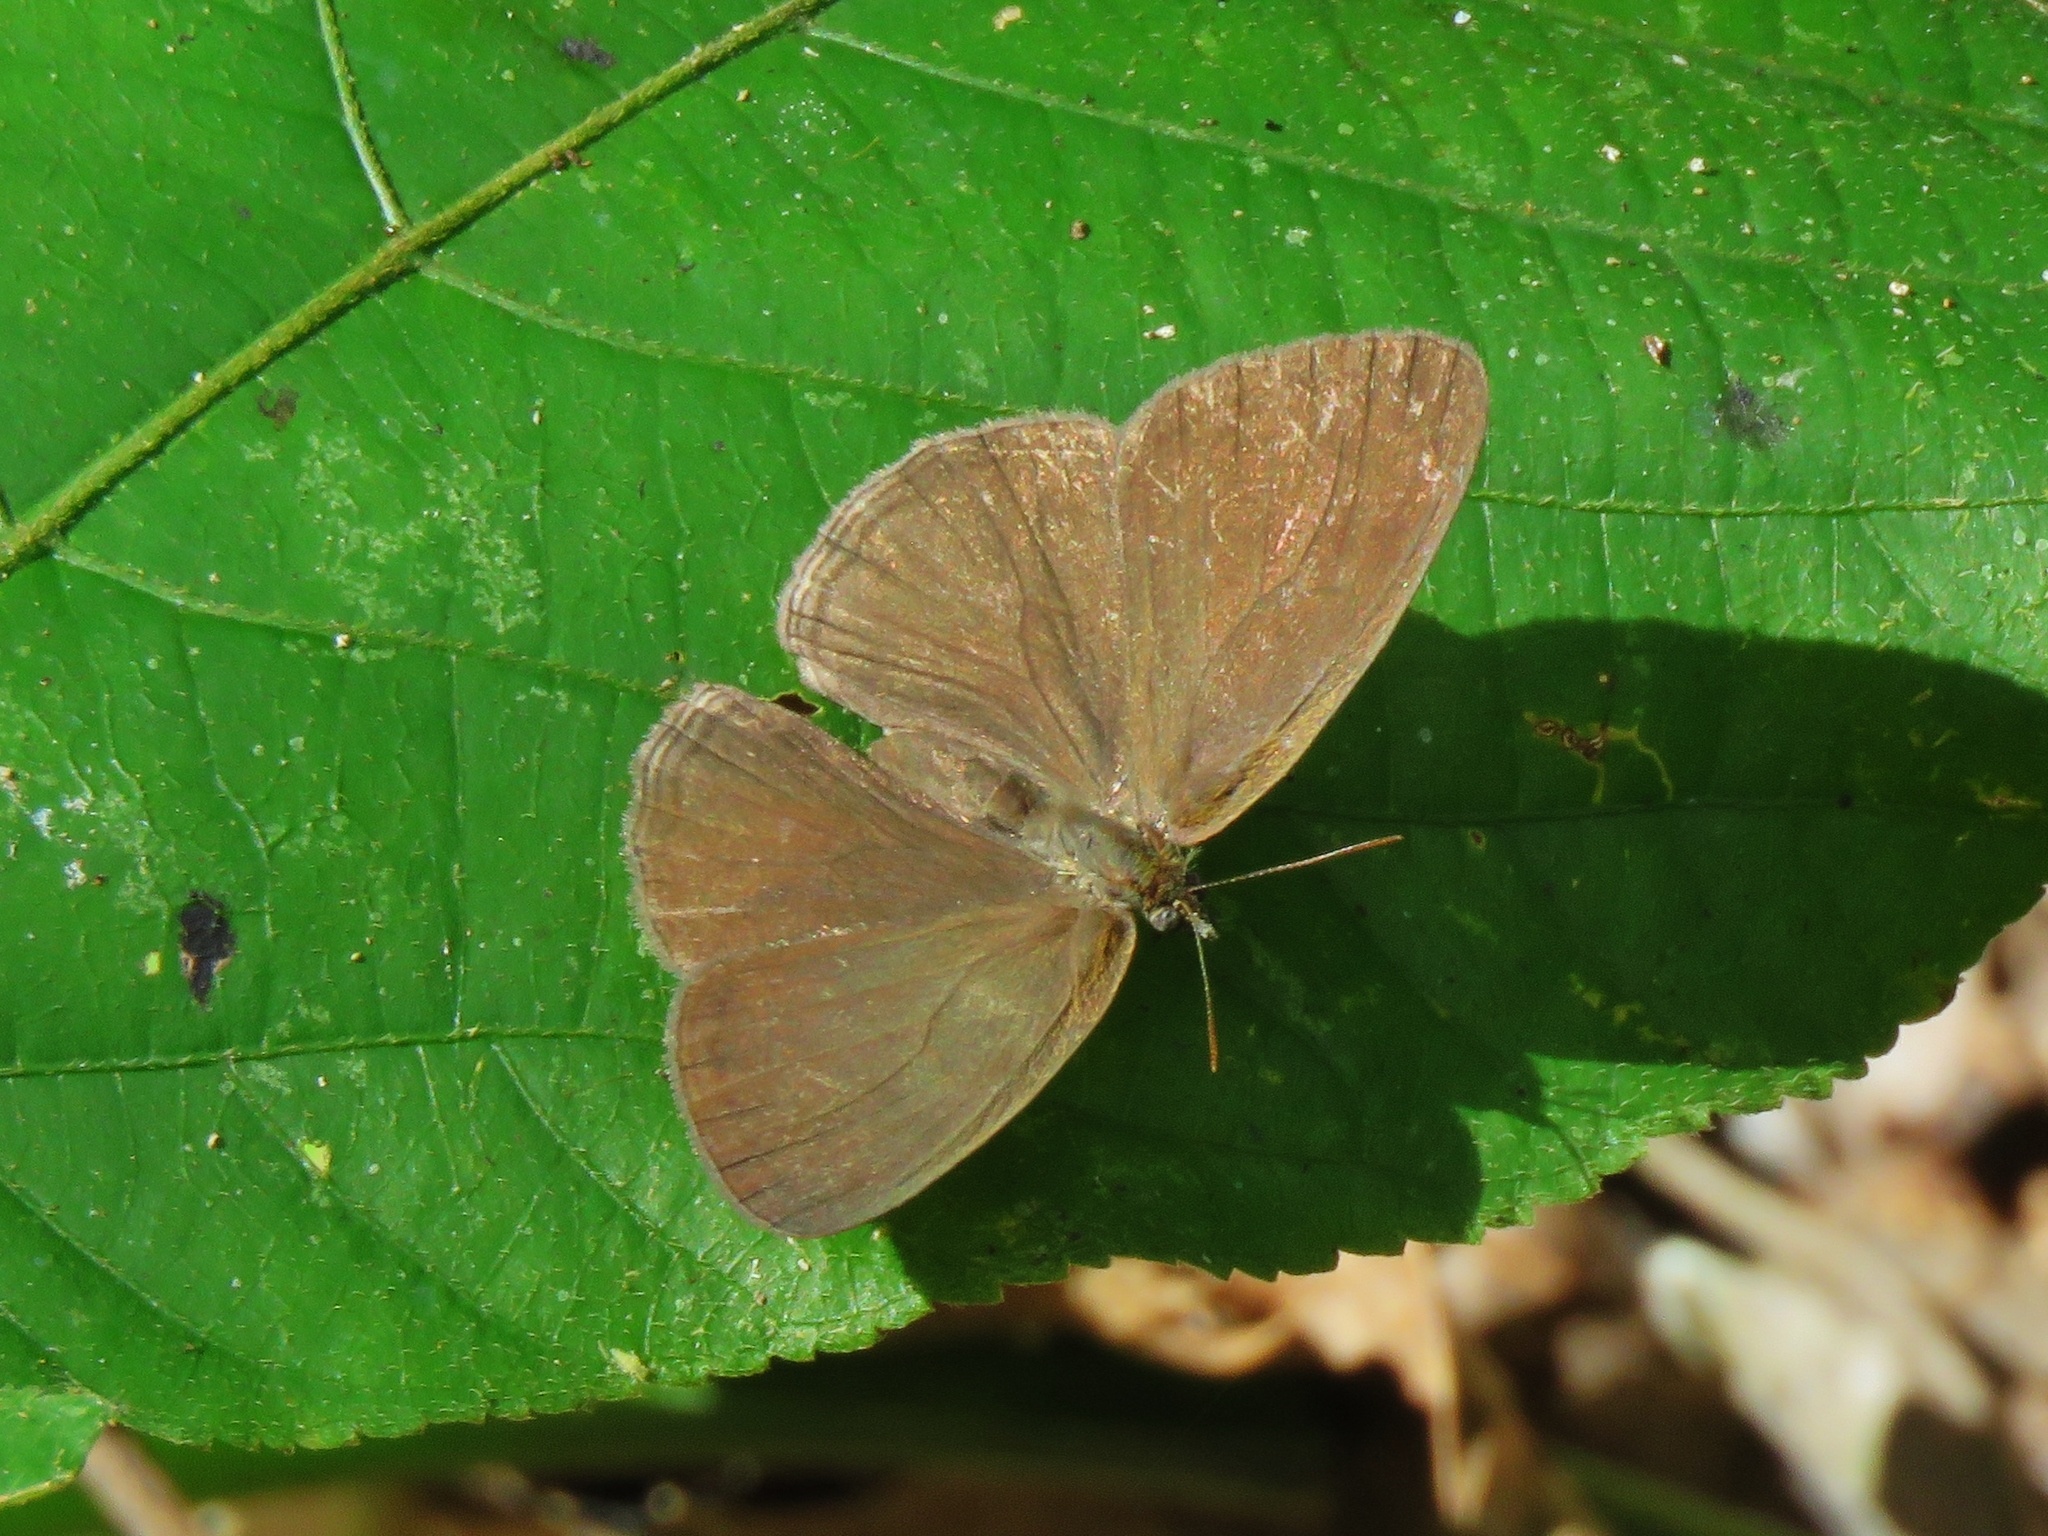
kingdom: Animalia
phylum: Arthropoda
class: Insecta
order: Lepidoptera
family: Nymphalidae
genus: Hermeuptychia
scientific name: Hermeuptychia hermes
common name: Hermes satyr
